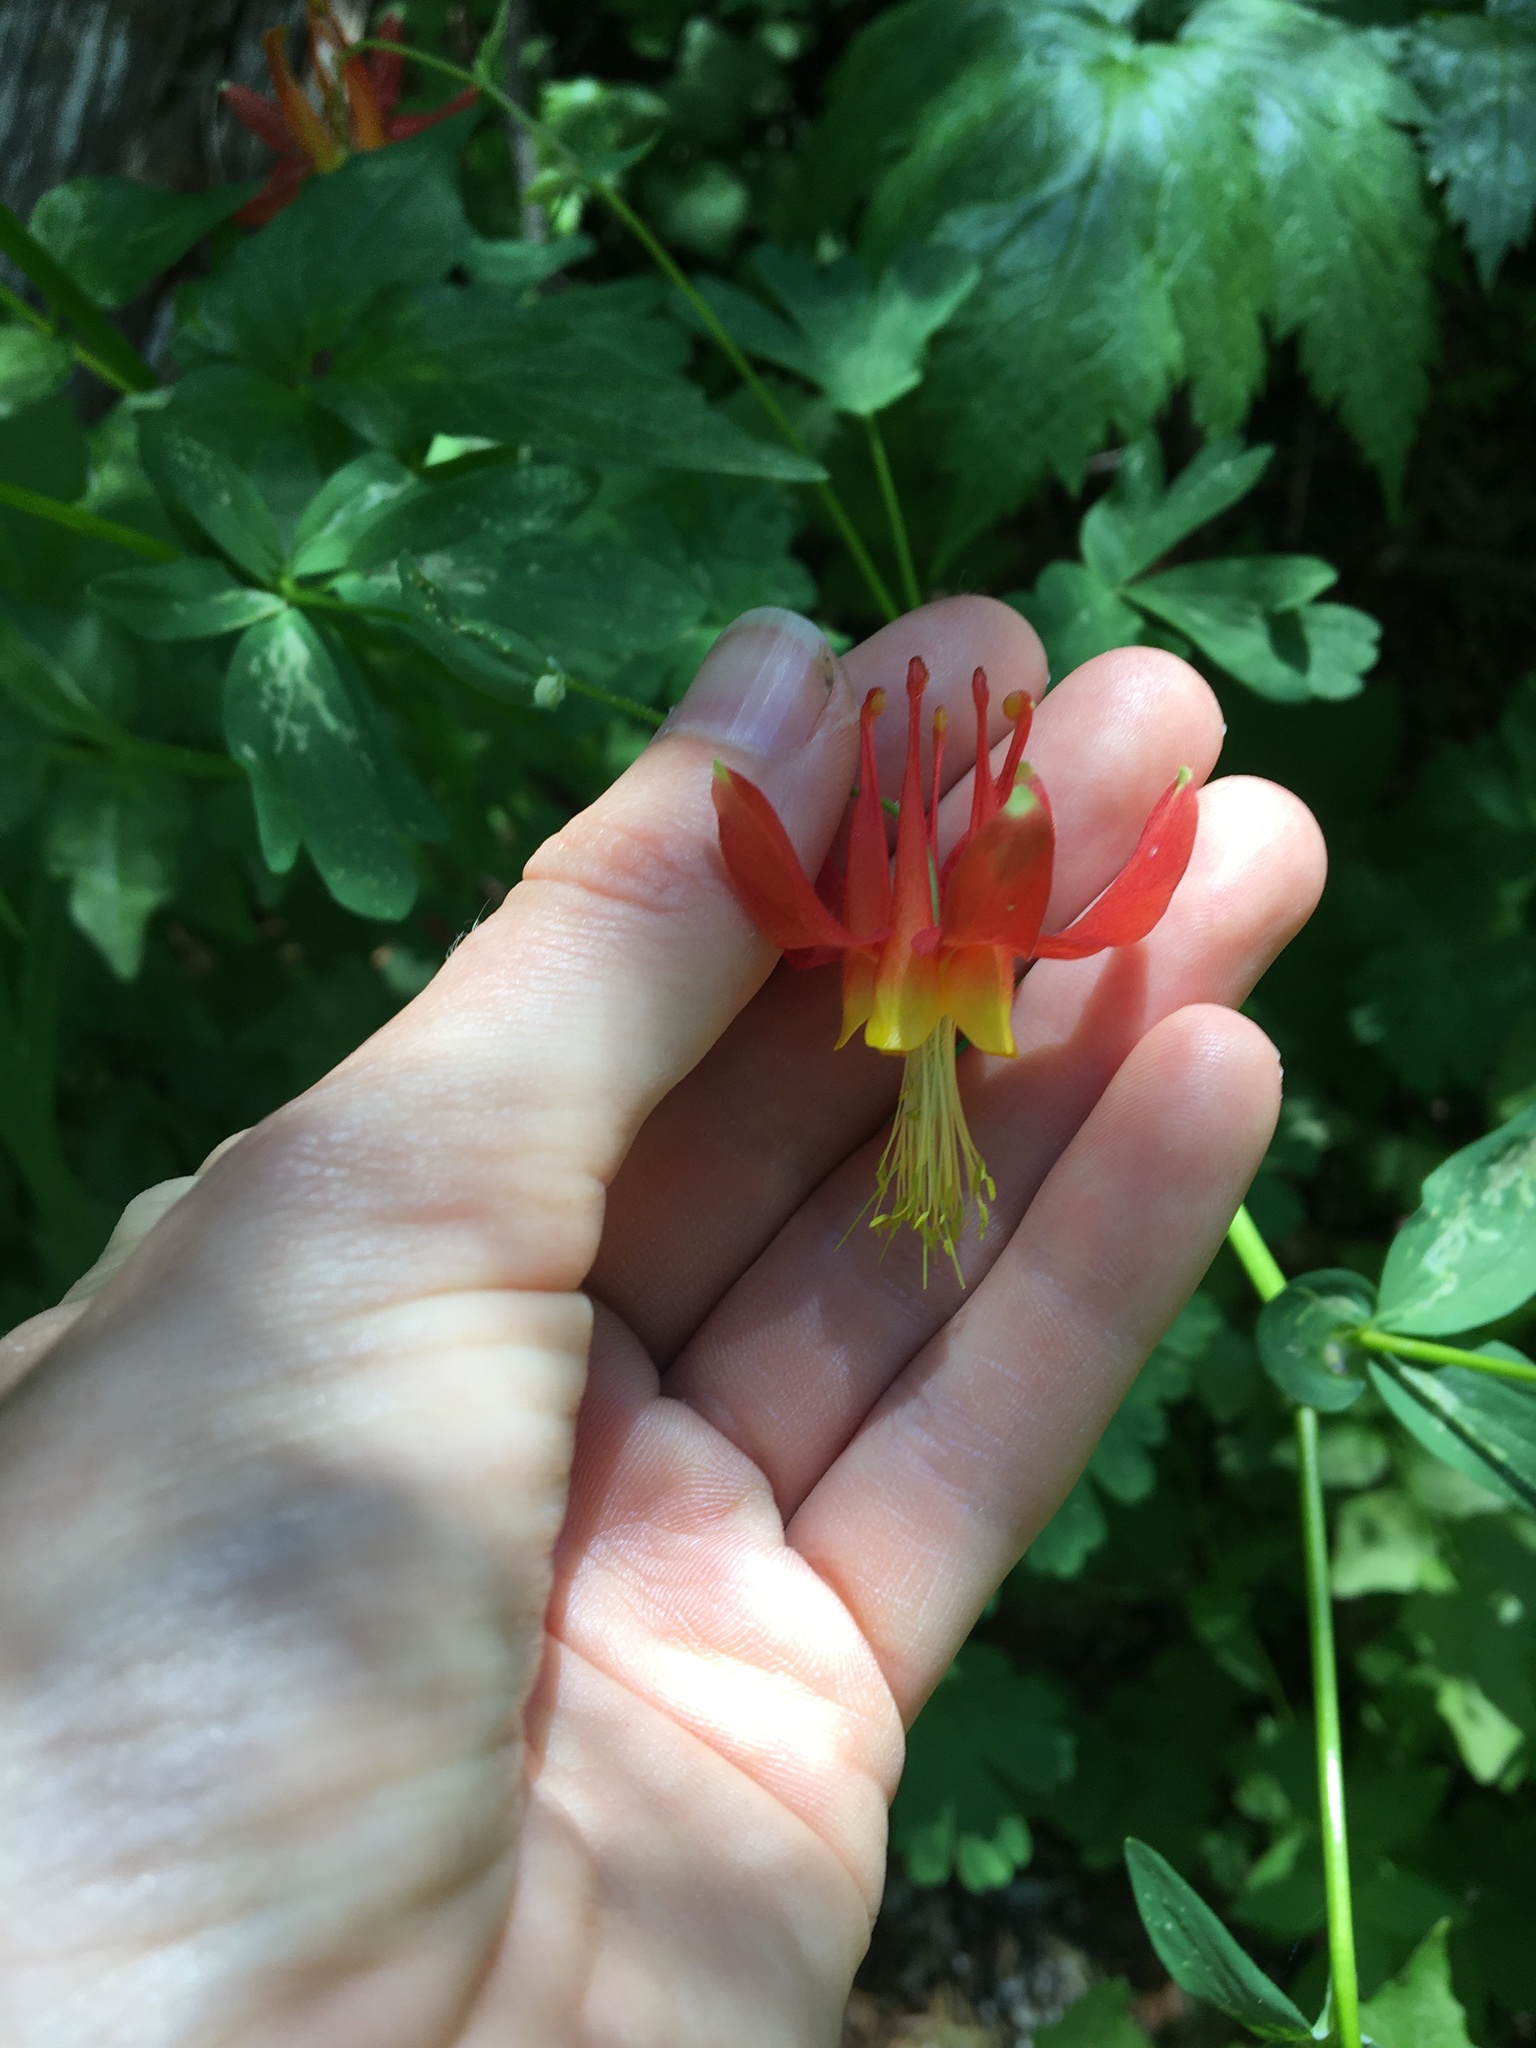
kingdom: Plantae
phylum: Tracheophyta
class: Magnoliopsida
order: Ranunculales
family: Ranunculaceae
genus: Aquilegia
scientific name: Aquilegia formosa
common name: Sitka columbine
